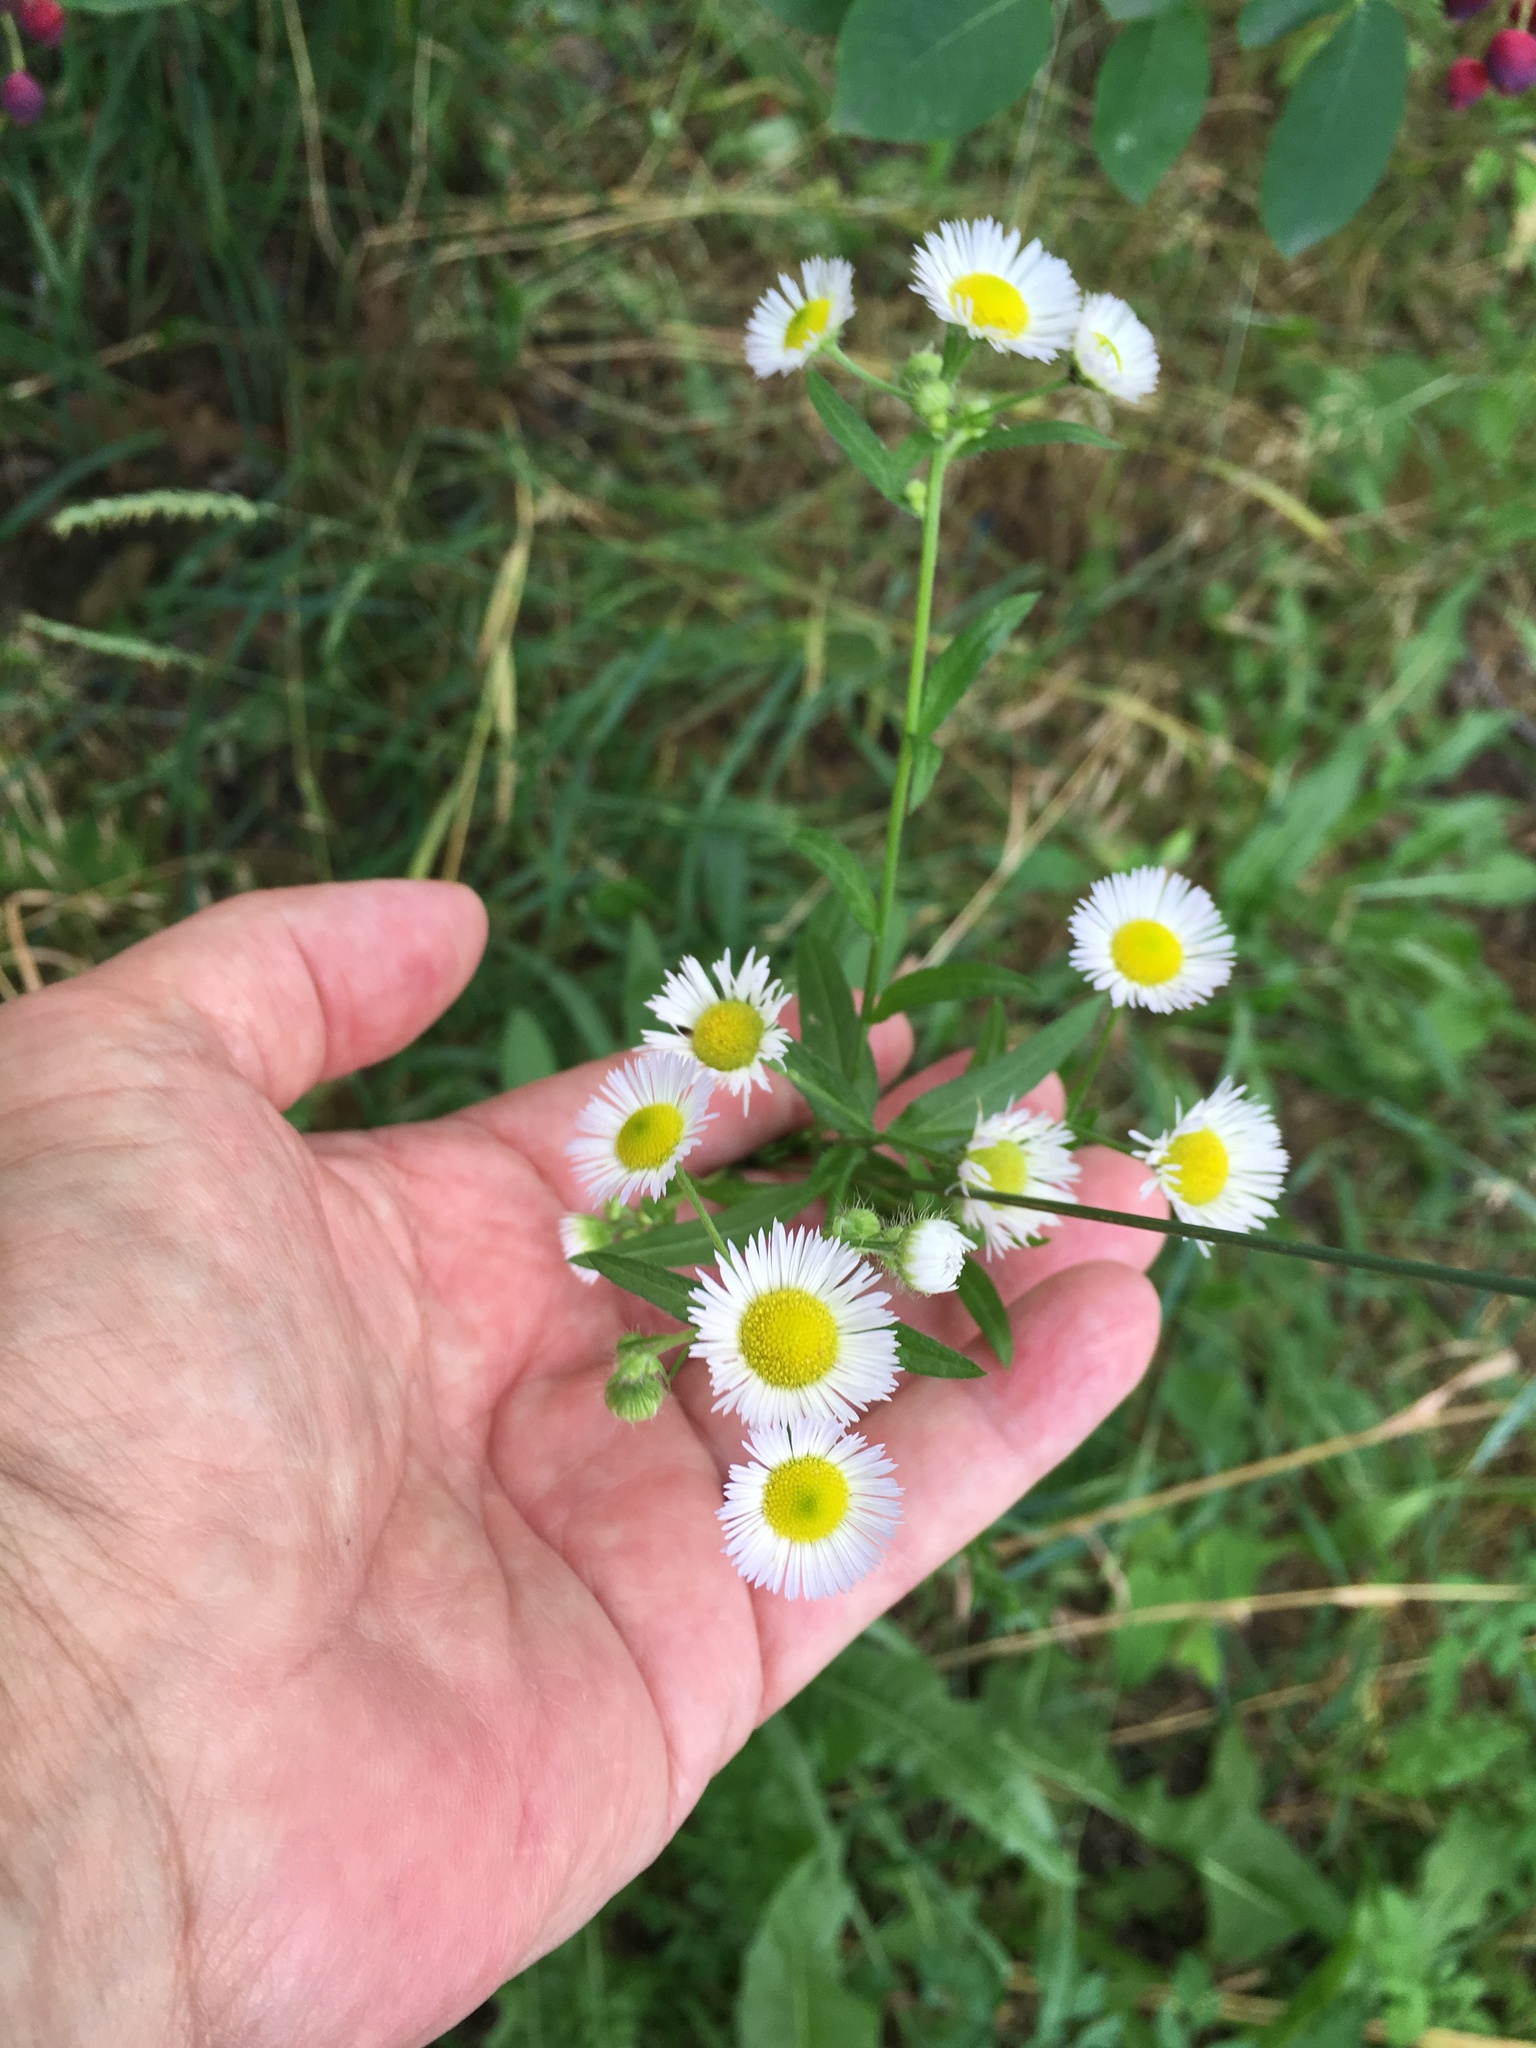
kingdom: Plantae
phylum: Tracheophyta
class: Magnoliopsida
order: Asterales
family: Asteraceae
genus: Erigeron
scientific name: Erigeron annuus
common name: Tall fleabane
